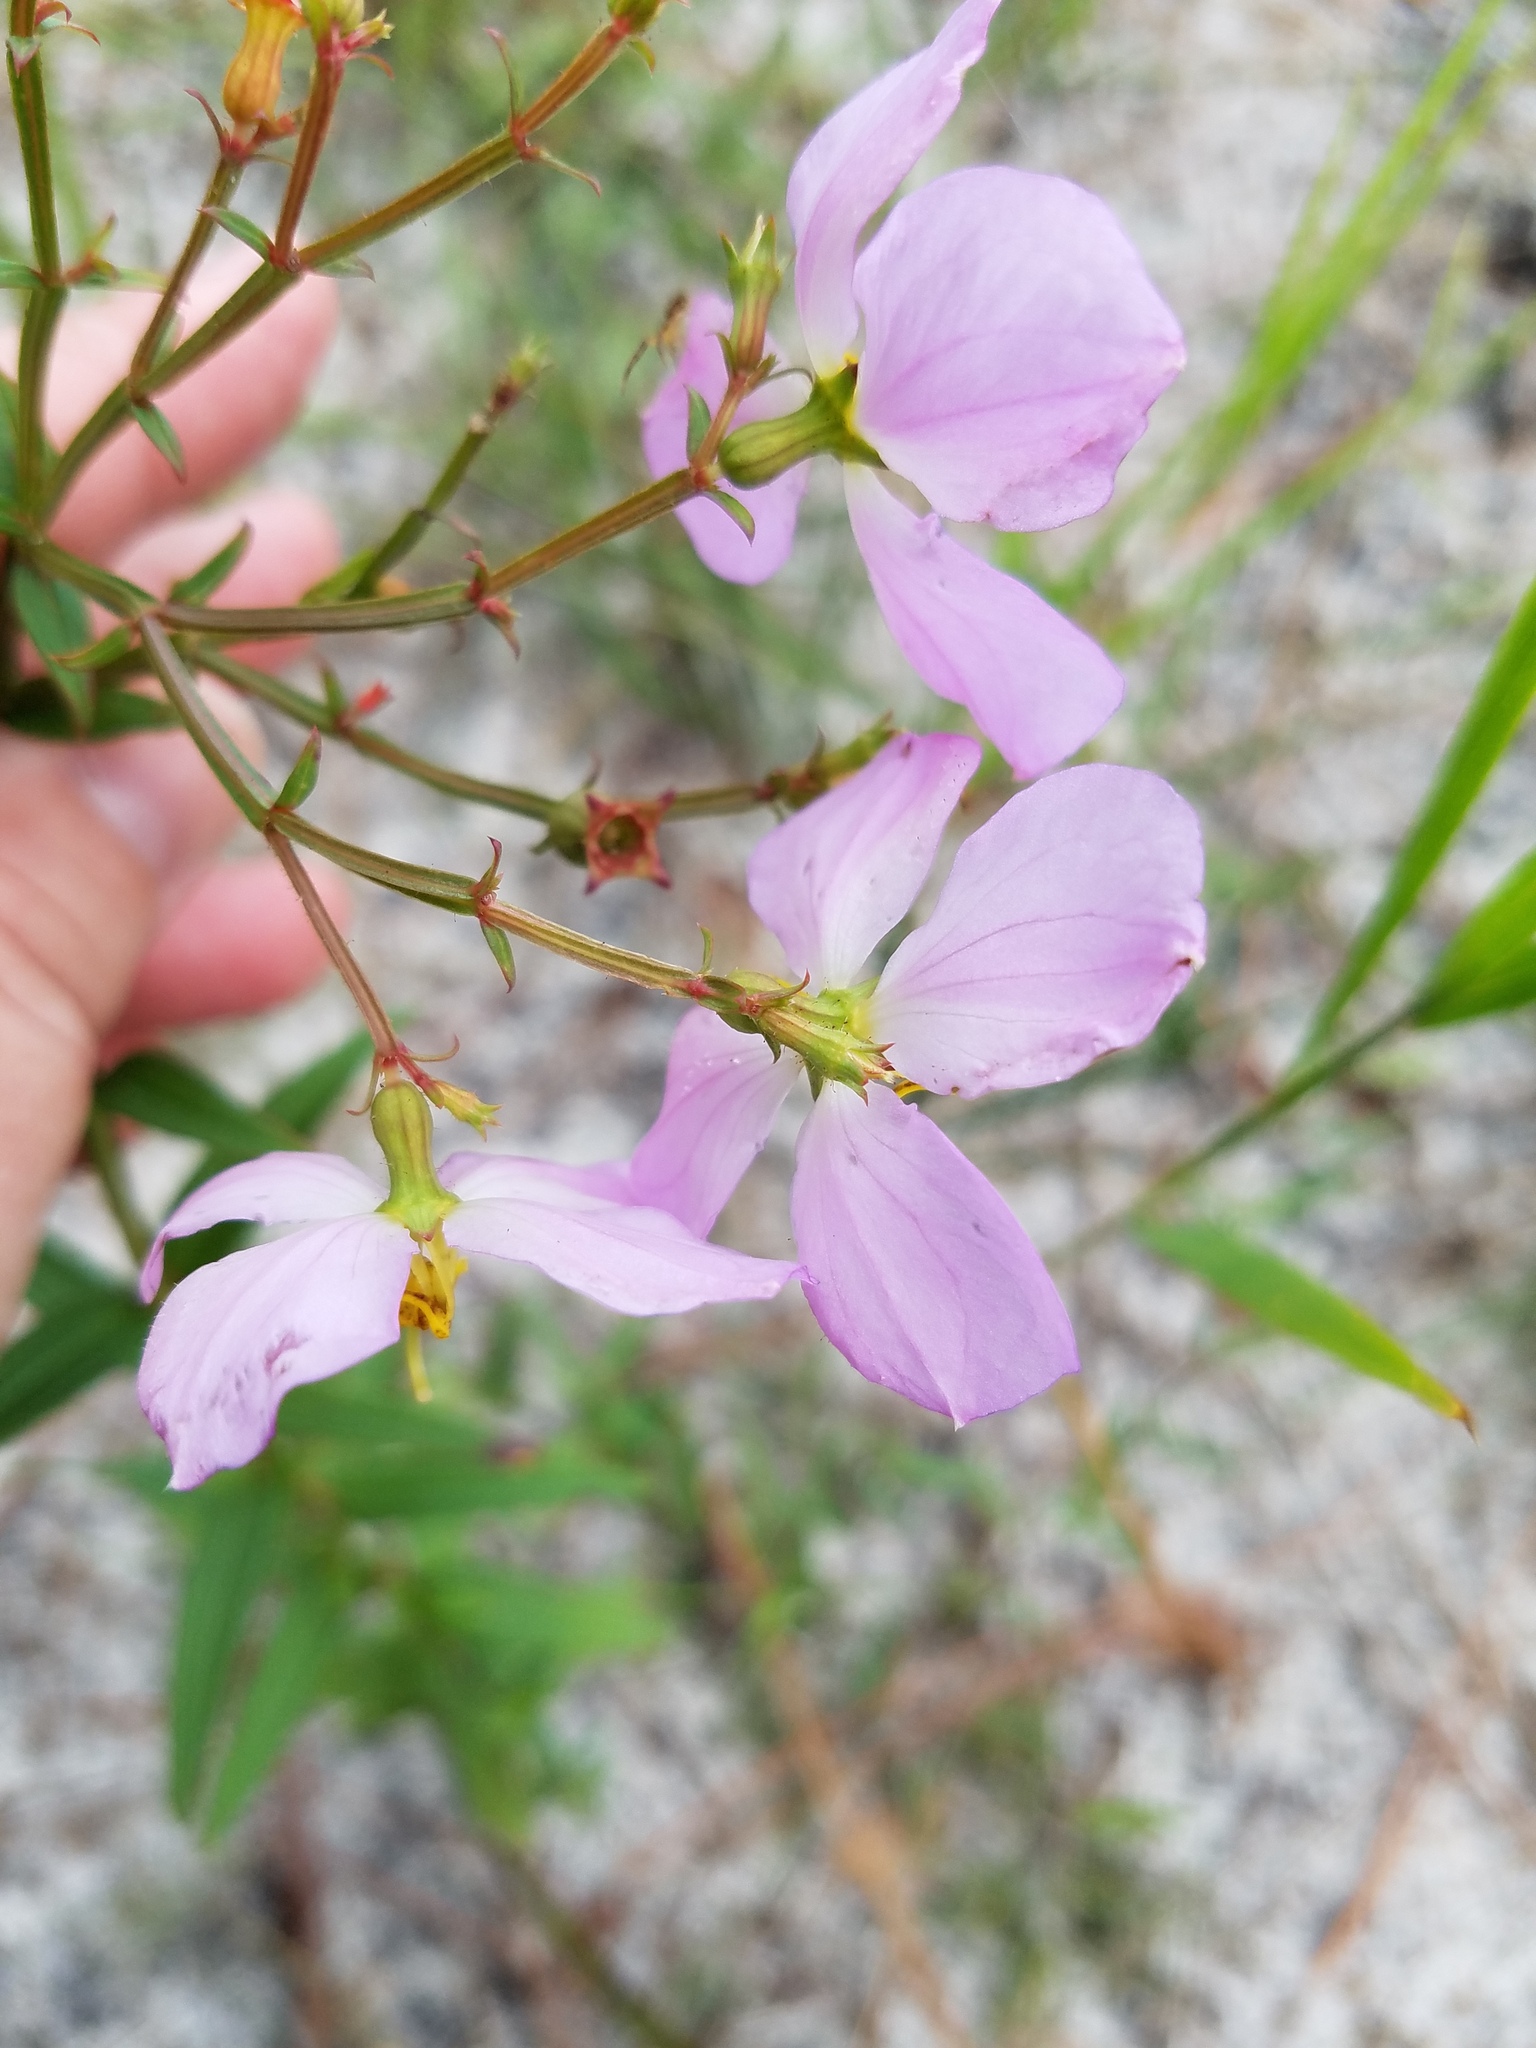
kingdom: Plantae
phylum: Tracheophyta
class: Magnoliopsida
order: Myrtales
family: Melastomataceae
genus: Rhexia
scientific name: Rhexia virginica
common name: Common meadow beauty
